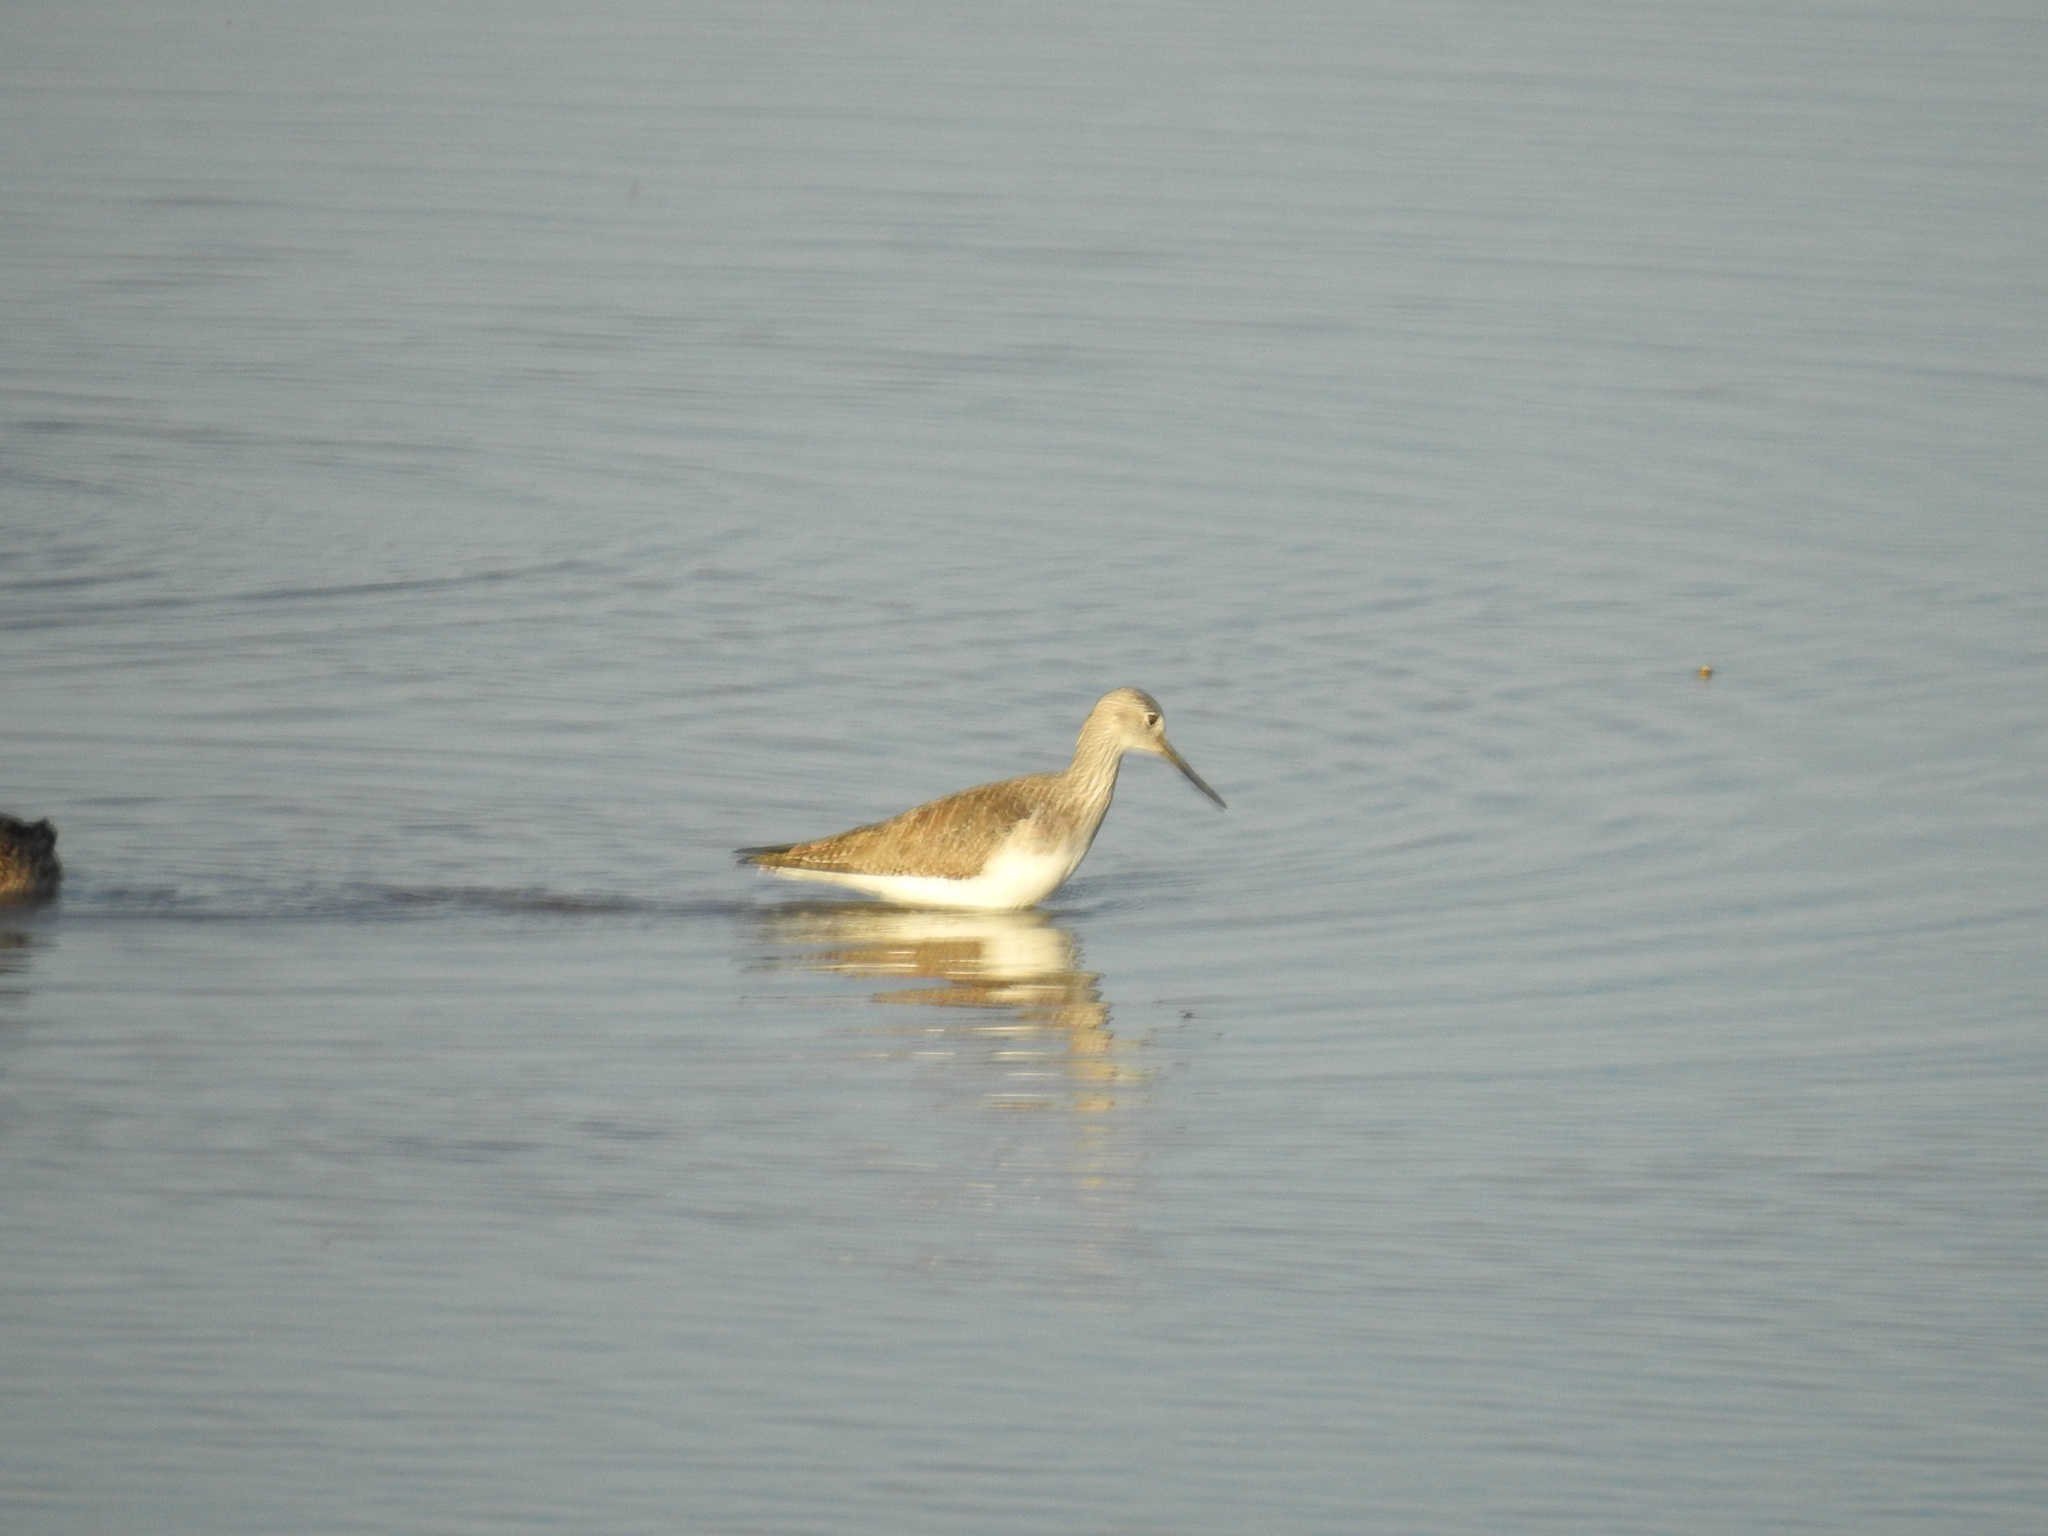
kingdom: Animalia
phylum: Chordata
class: Aves
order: Charadriiformes
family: Scolopacidae
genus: Tringa
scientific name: Tringa melanoleuca
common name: Greater yellowlegs
